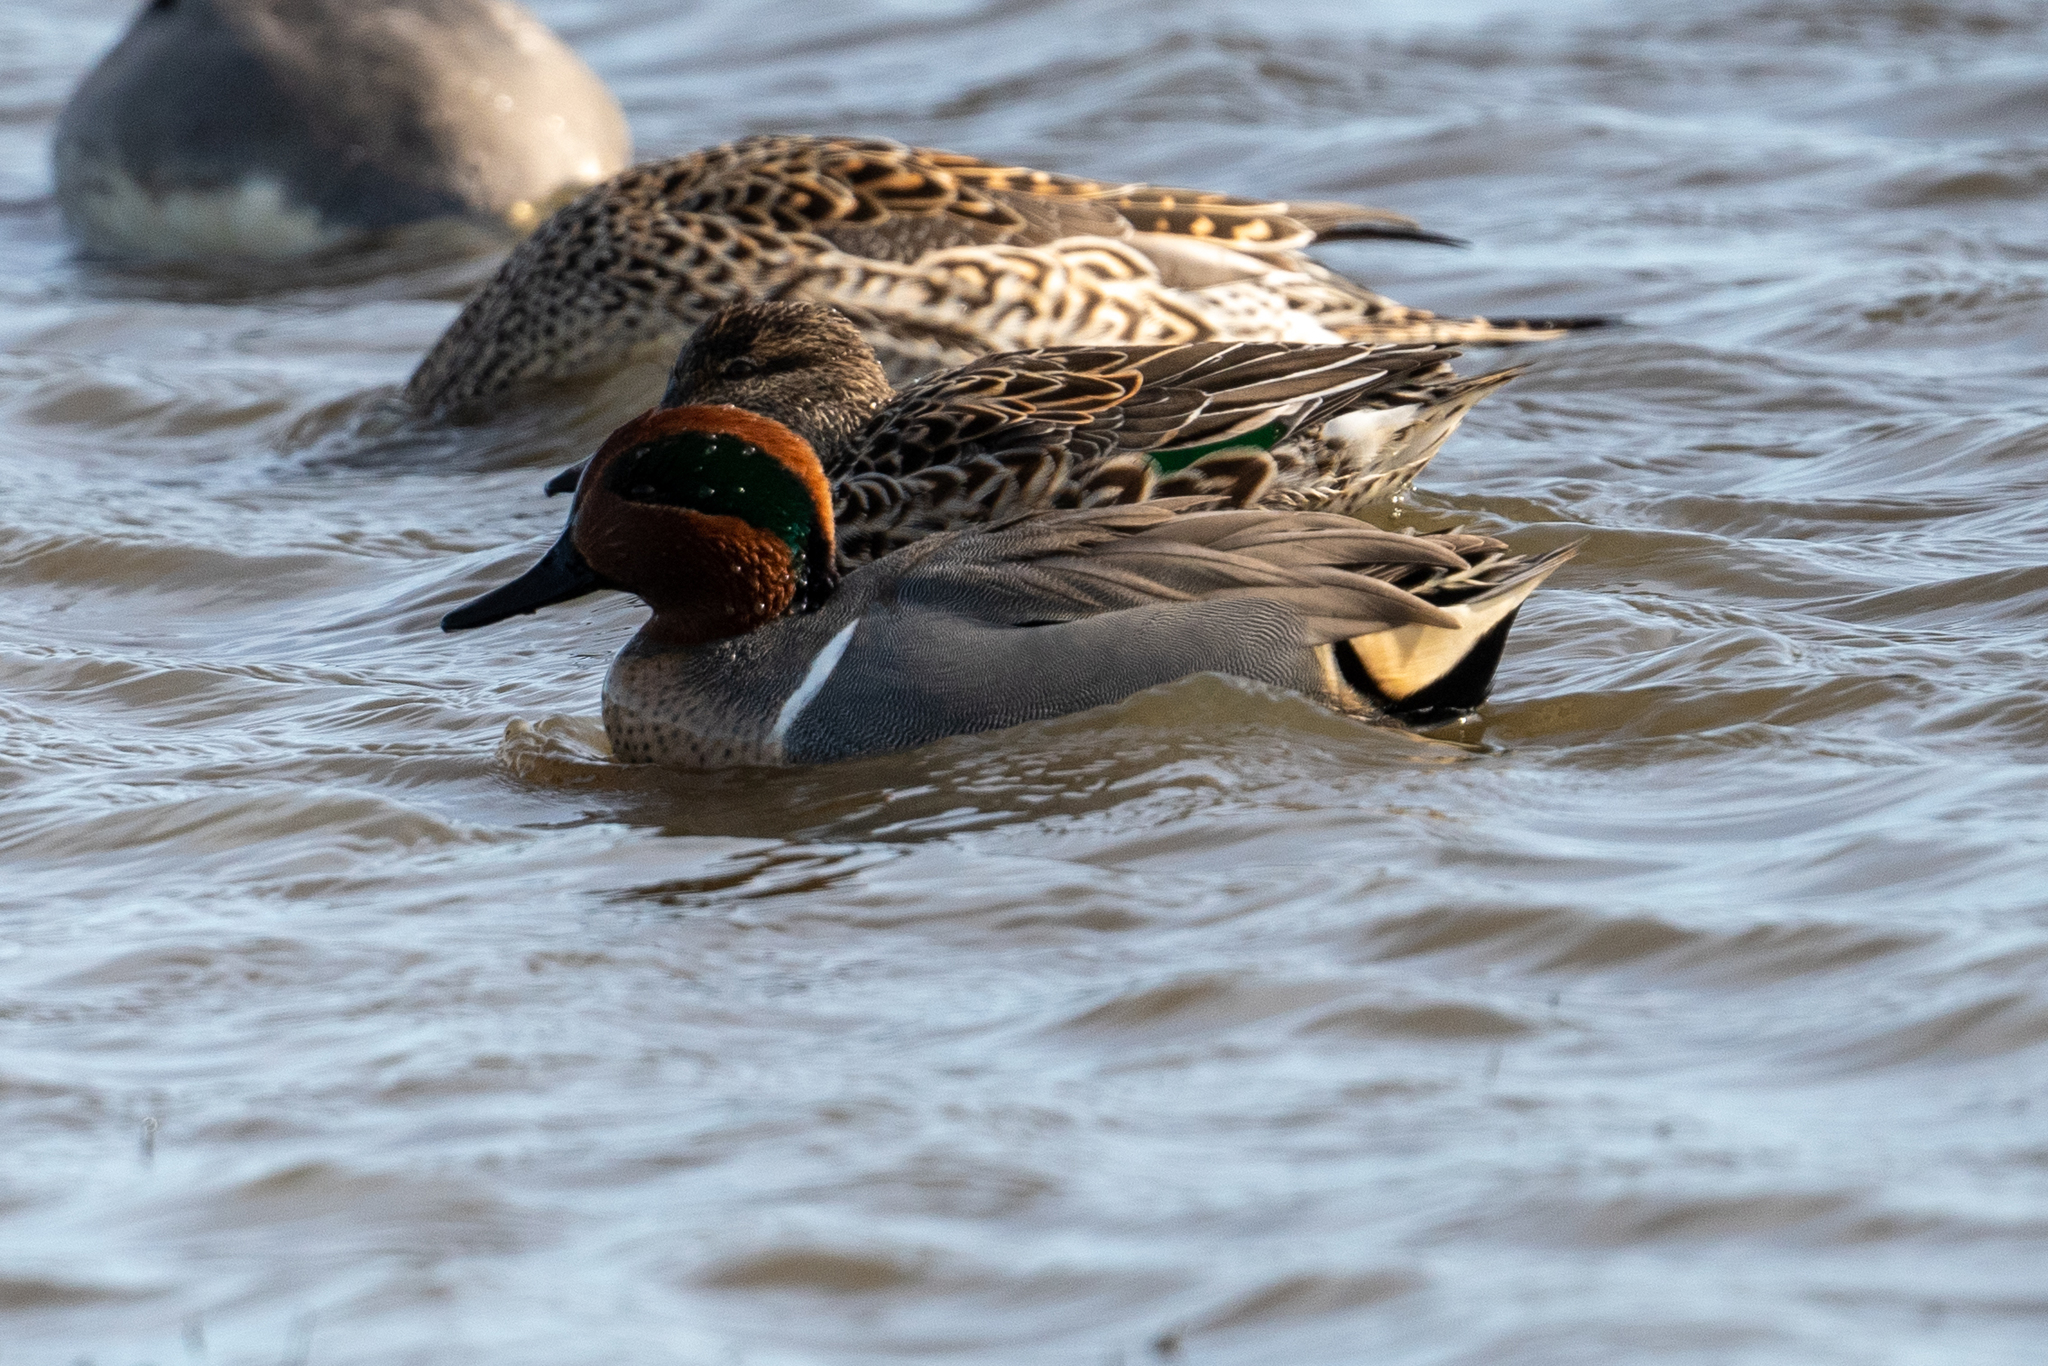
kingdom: Animalia
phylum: Chordata
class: Aves
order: Anseriformes
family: Anatidae
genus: Anas
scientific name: Anas crecca
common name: Eurasian teal
